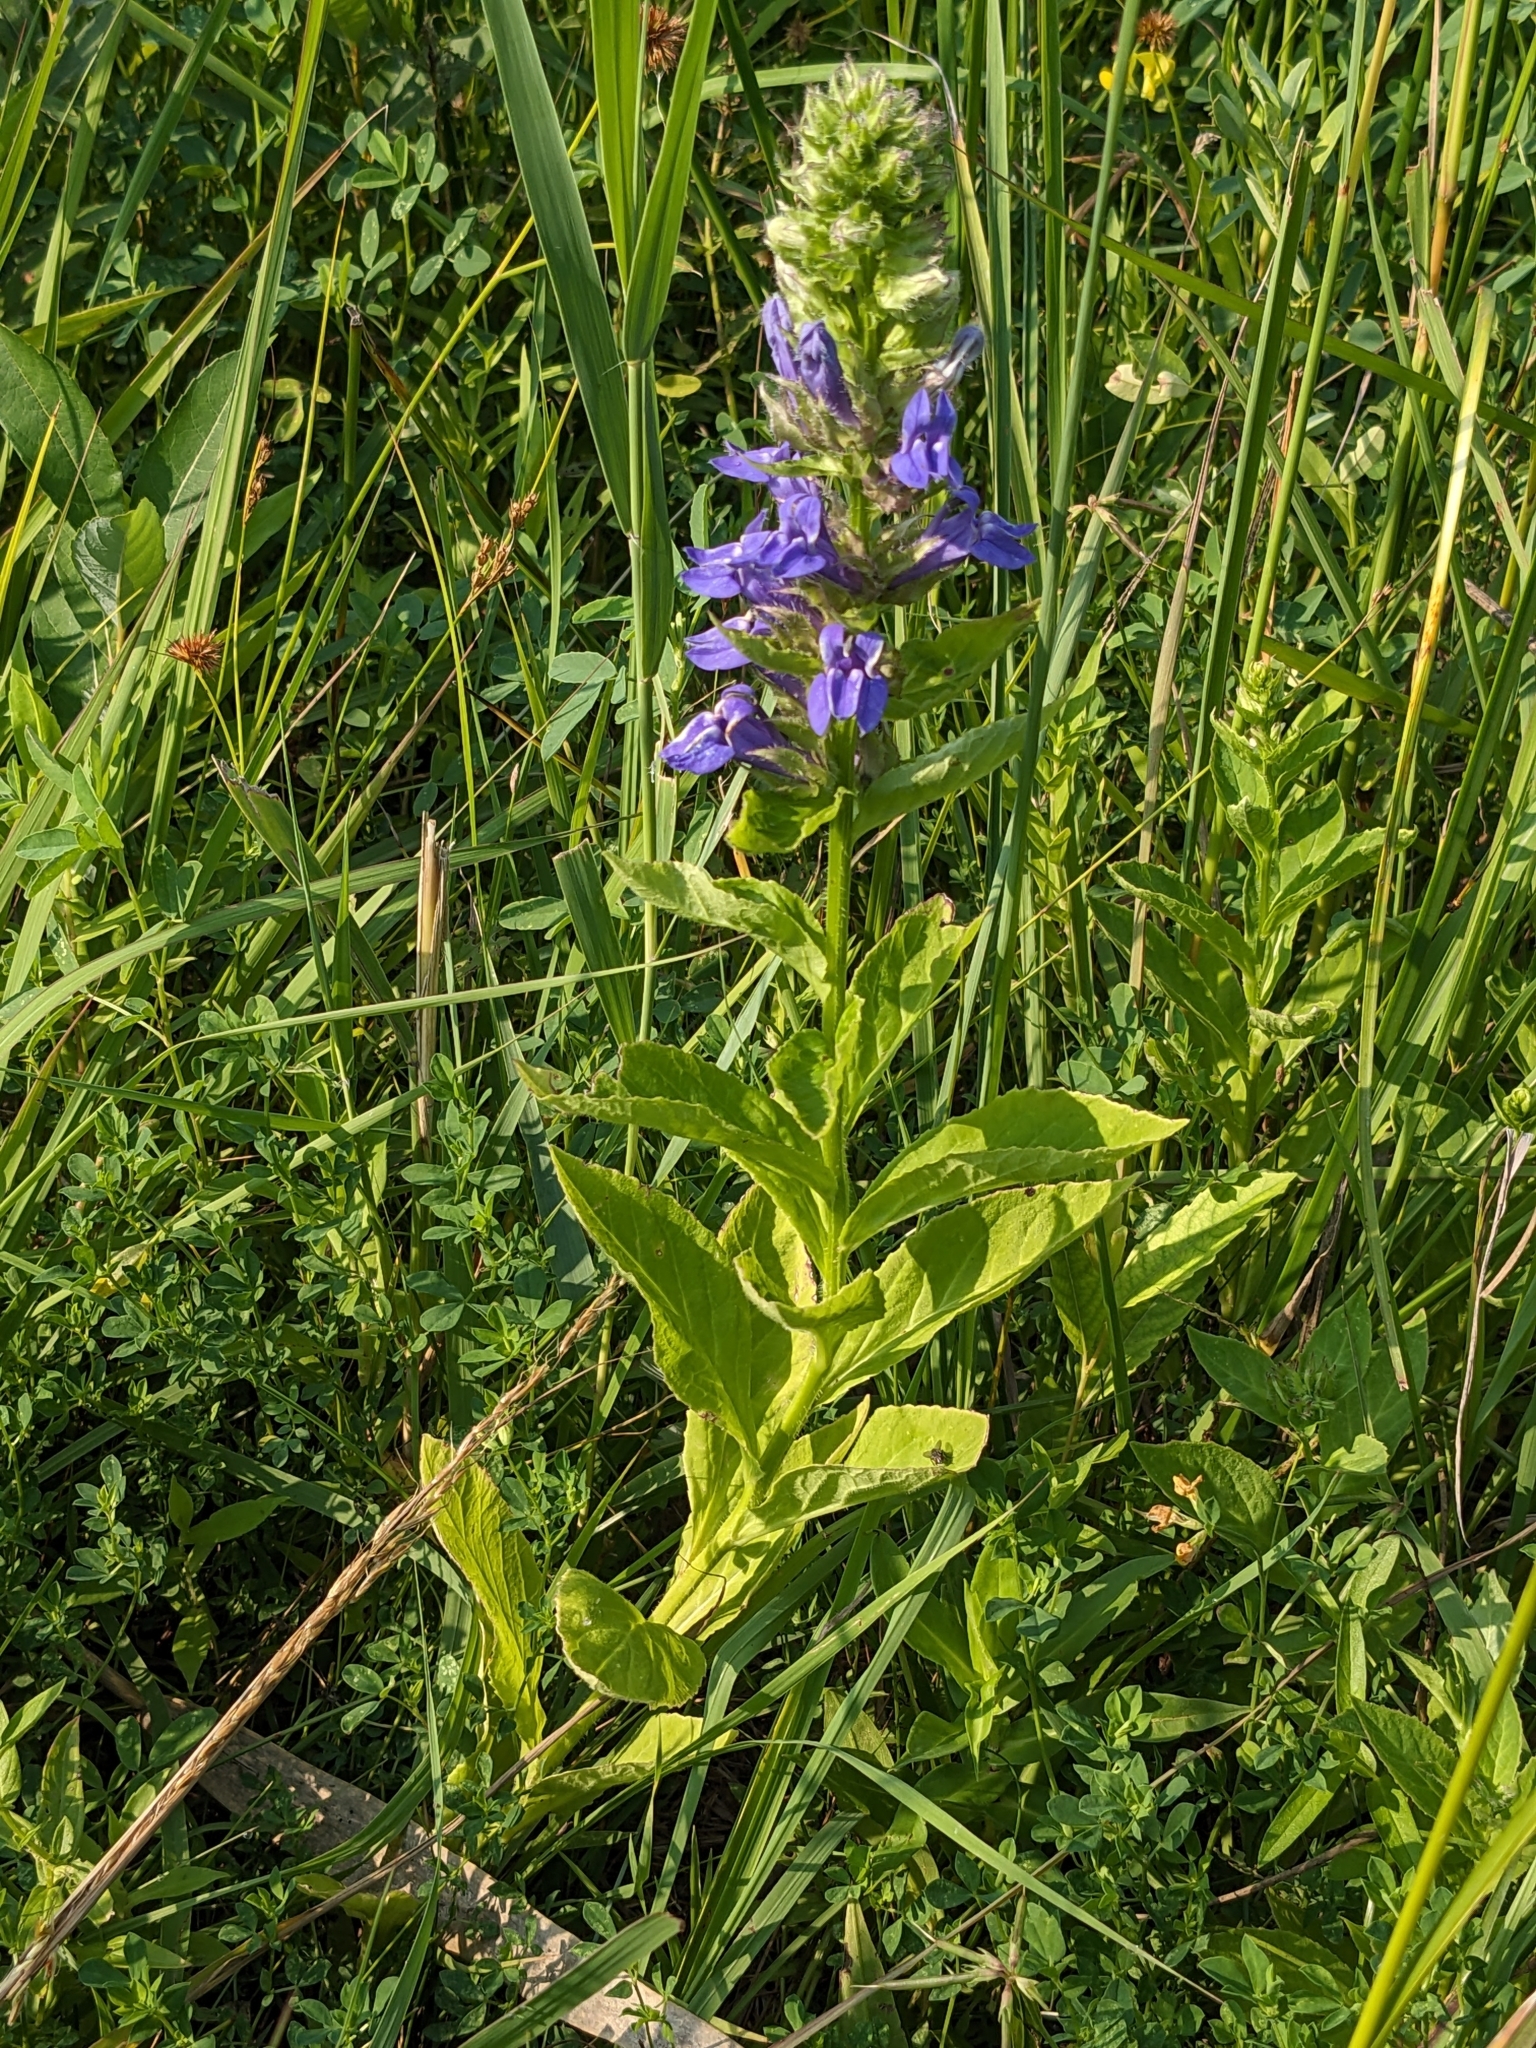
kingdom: Plantae
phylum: Tracheophyta
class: Magnoliopsida
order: Asterales
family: Campanulaceae
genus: Lobelia
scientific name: Lobelia siphilitica
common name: Great lobelia
